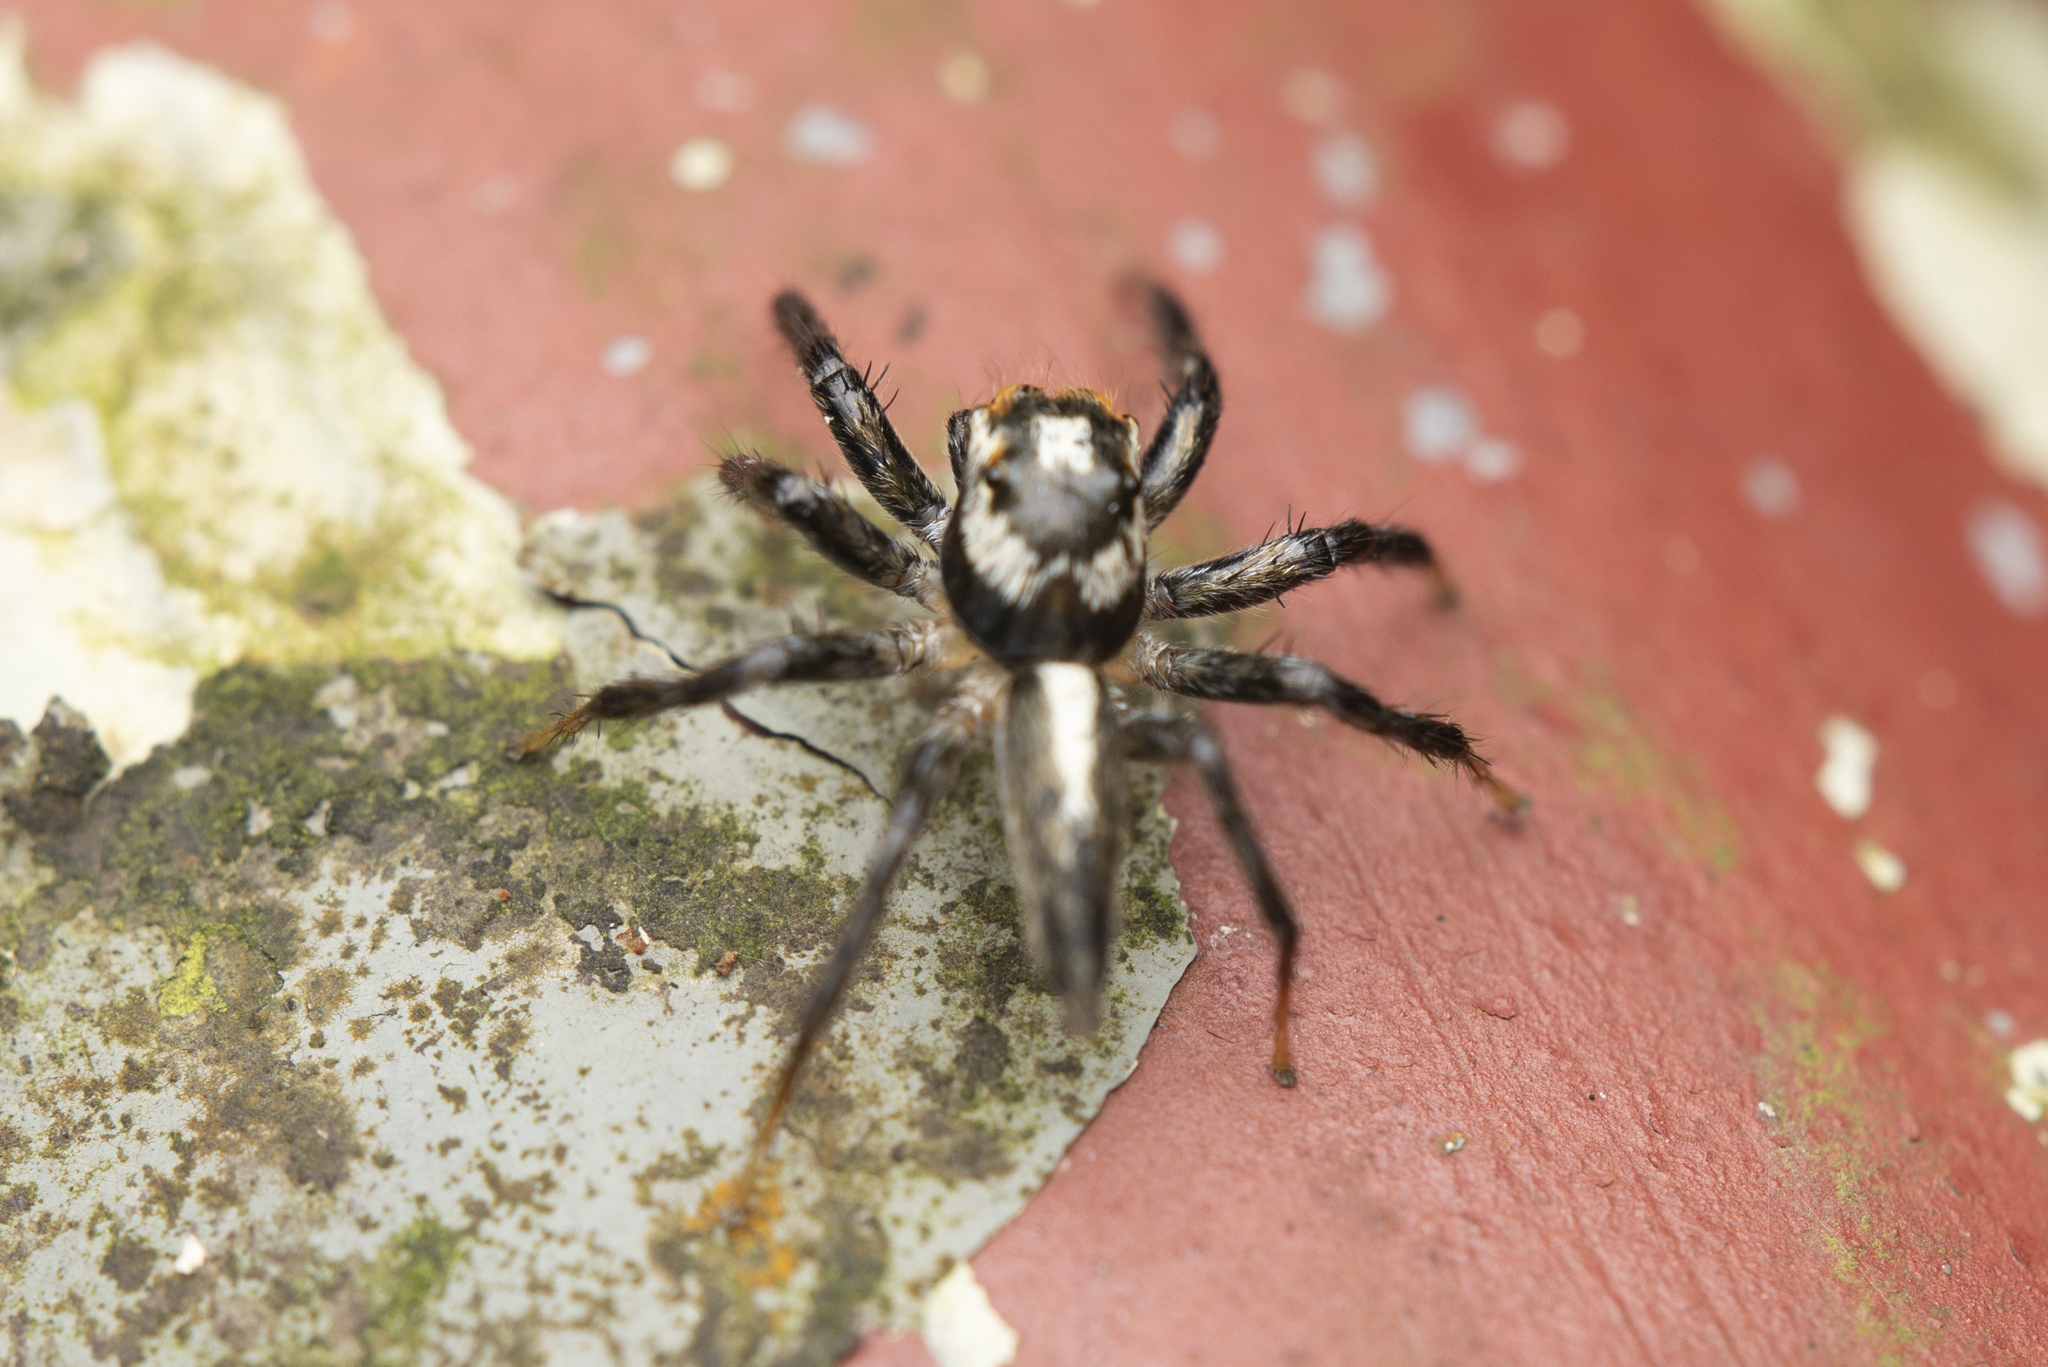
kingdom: Animalia
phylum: Arthropoda
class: Arachnida
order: Araneae
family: Salticidae
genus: Telamonia
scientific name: Telamonia caprina
